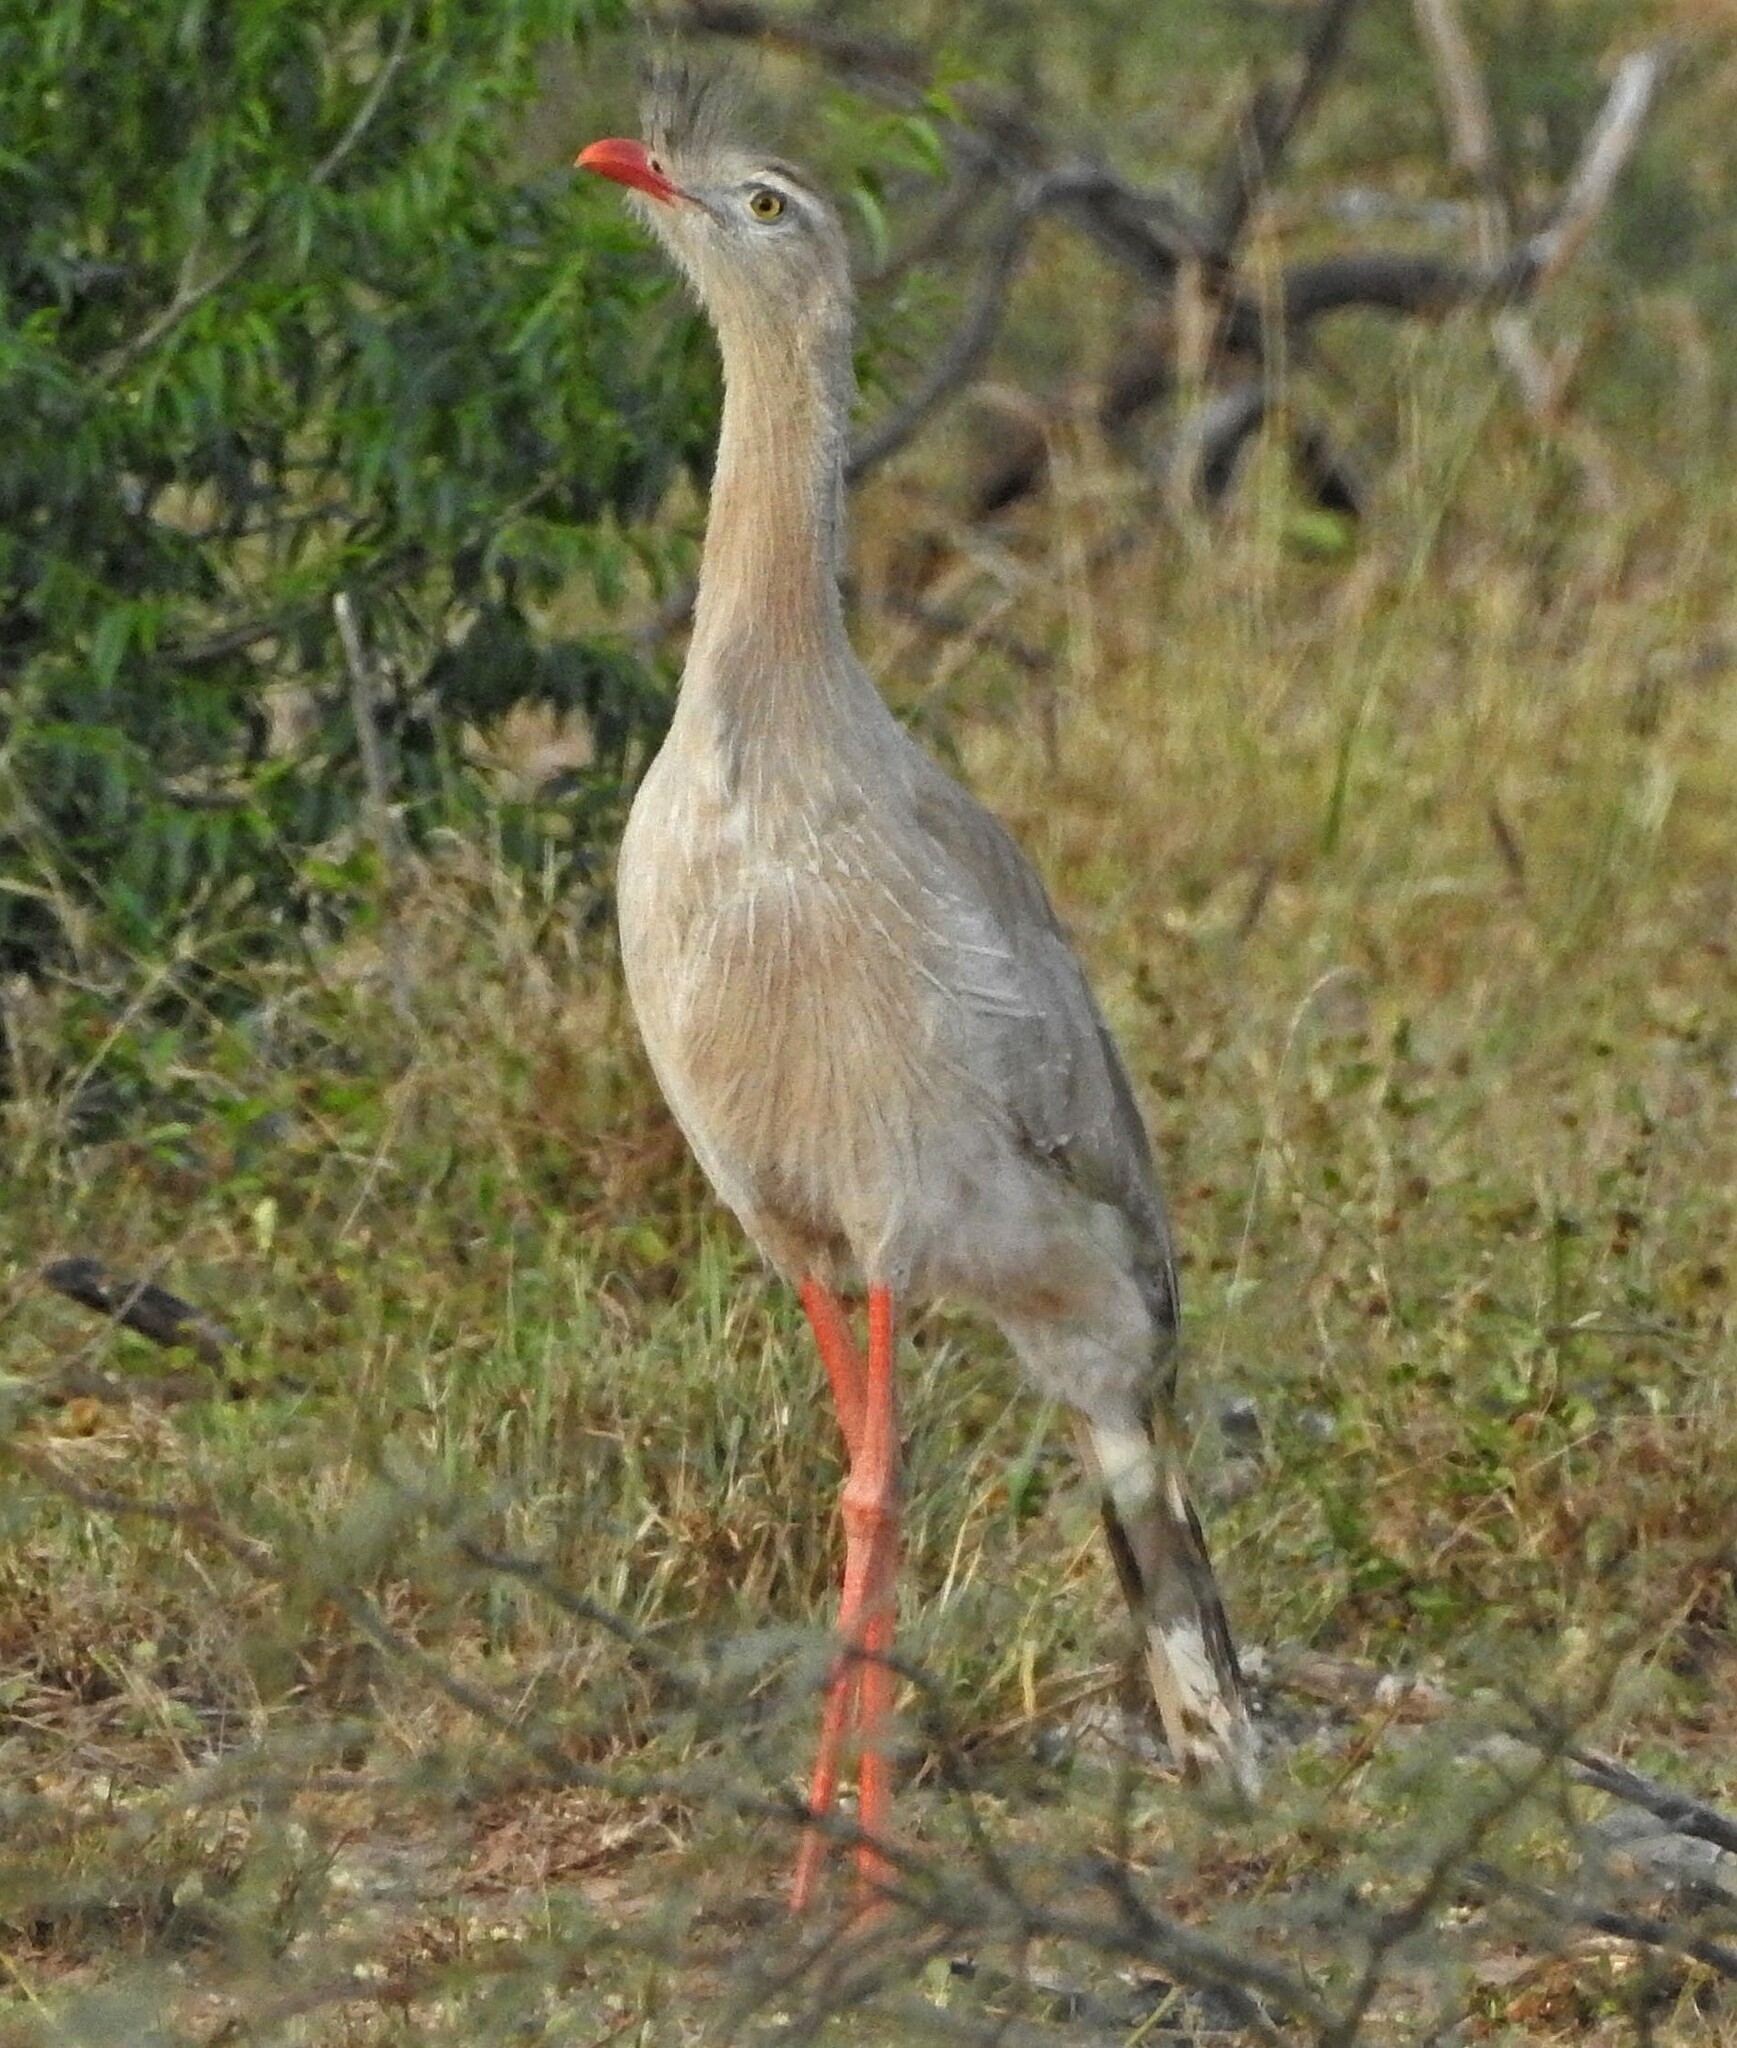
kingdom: Animalia
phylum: Chordata
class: Aves
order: Cariamiformes
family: Cariamidae
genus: Cariama
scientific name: Cariama cristata
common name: Red-legged seriema
